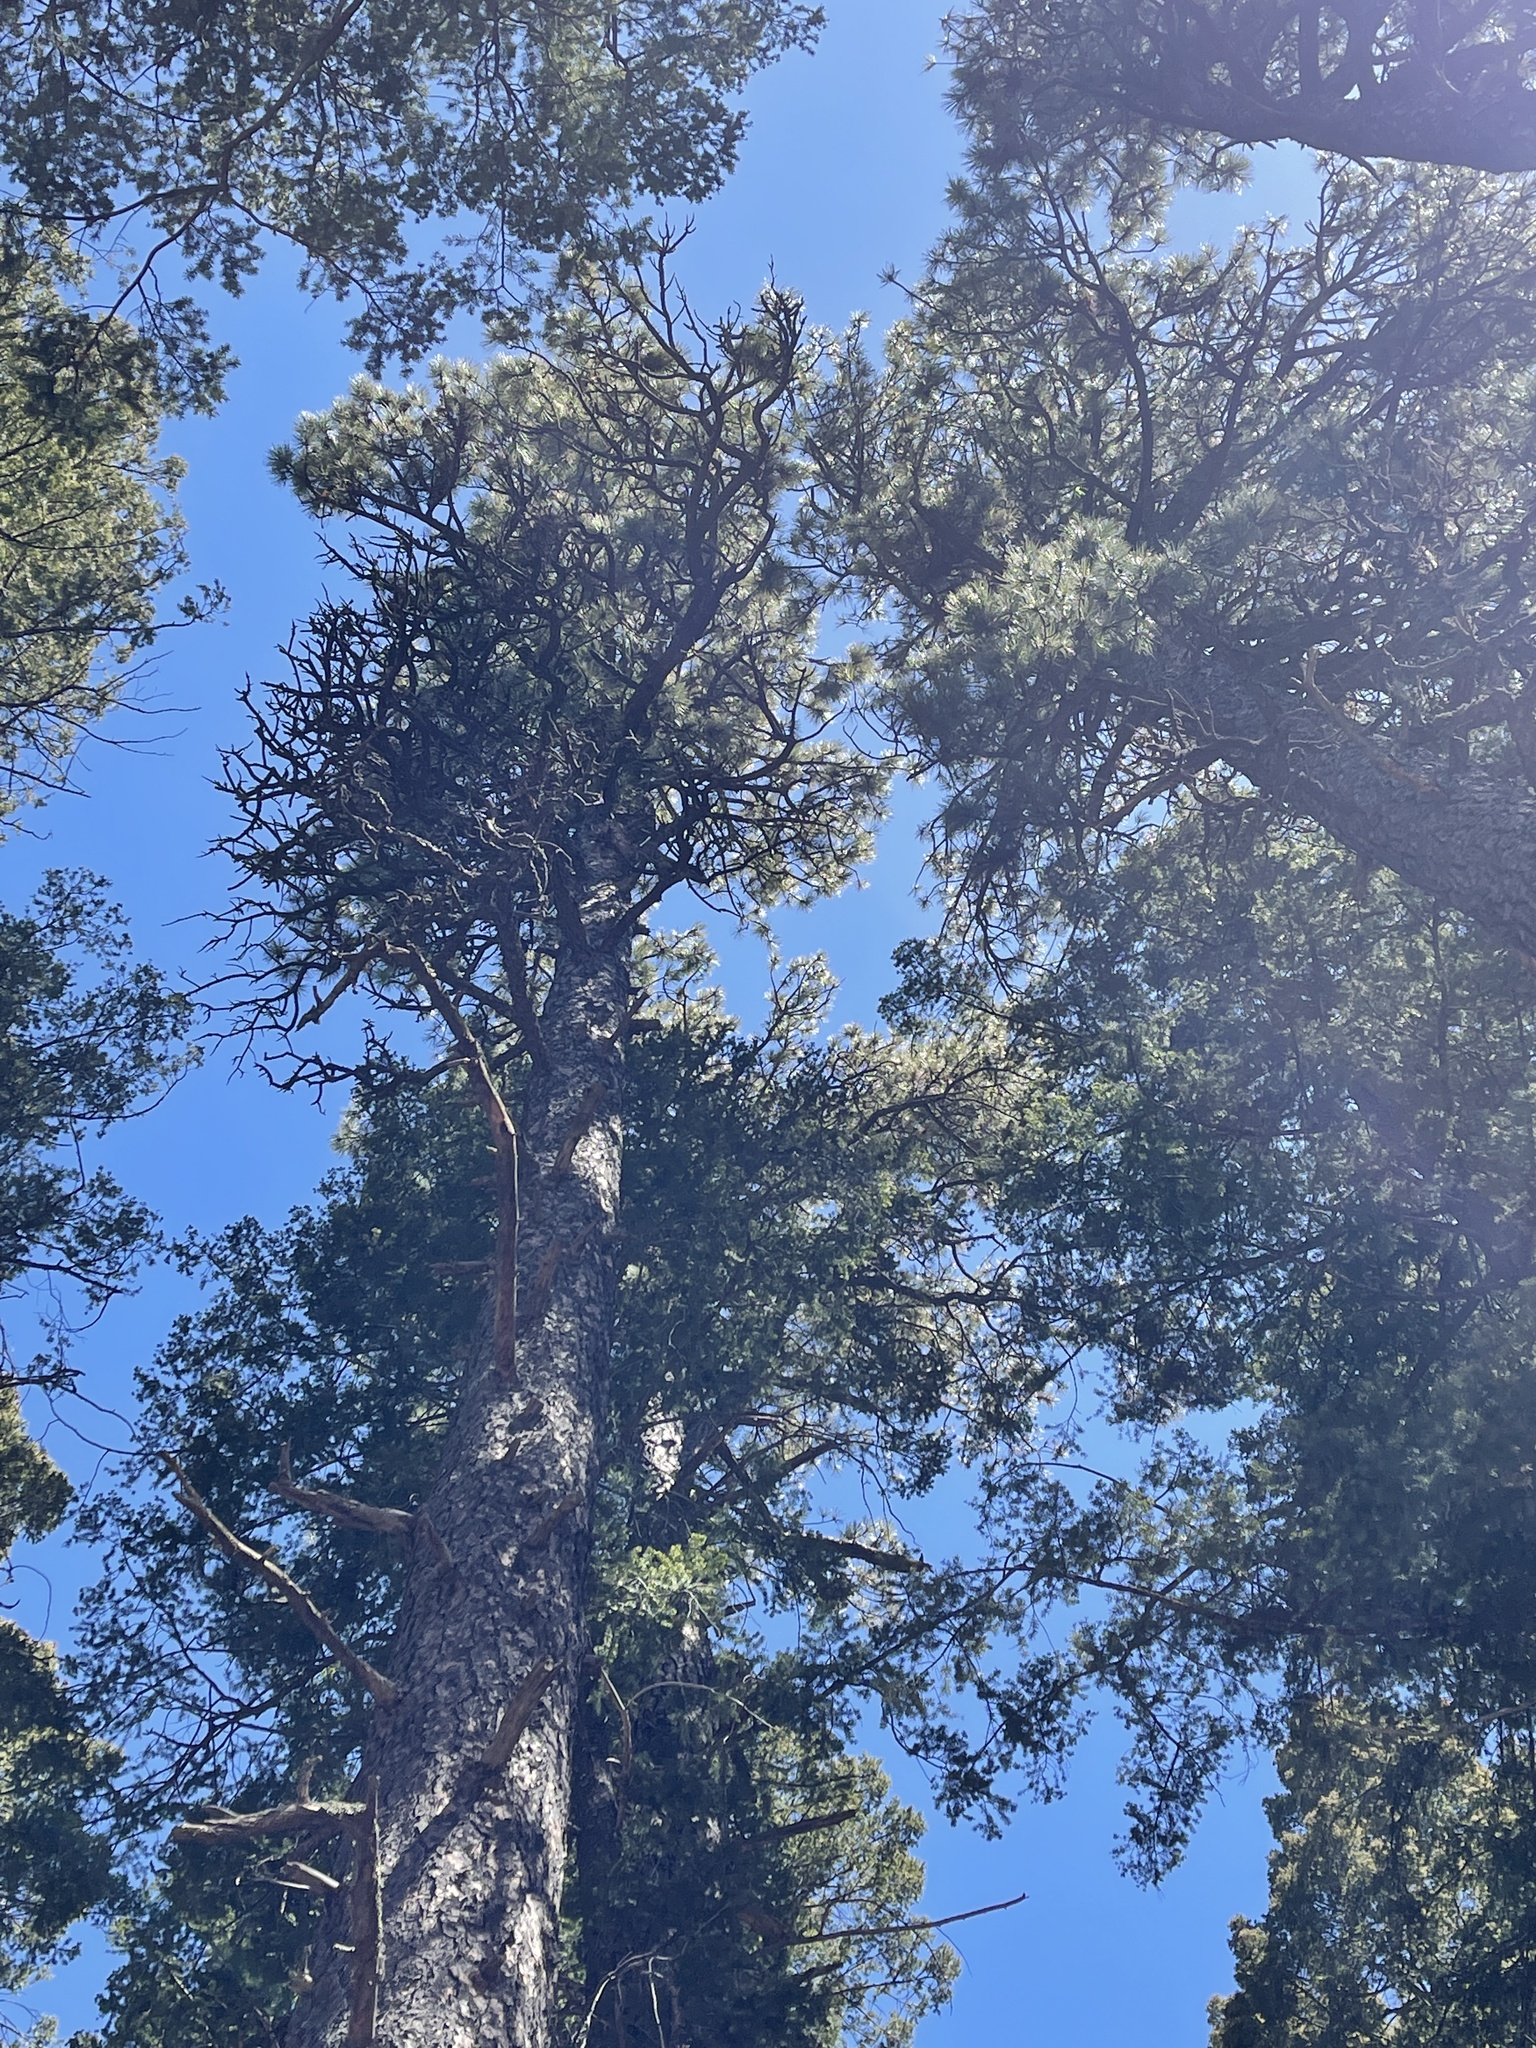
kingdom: Plantae
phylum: Tracheophyta
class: Pinopsida
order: Pinales
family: Pinaceae
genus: Pinus
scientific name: Pinus ponderosa
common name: Western yellow-pine
